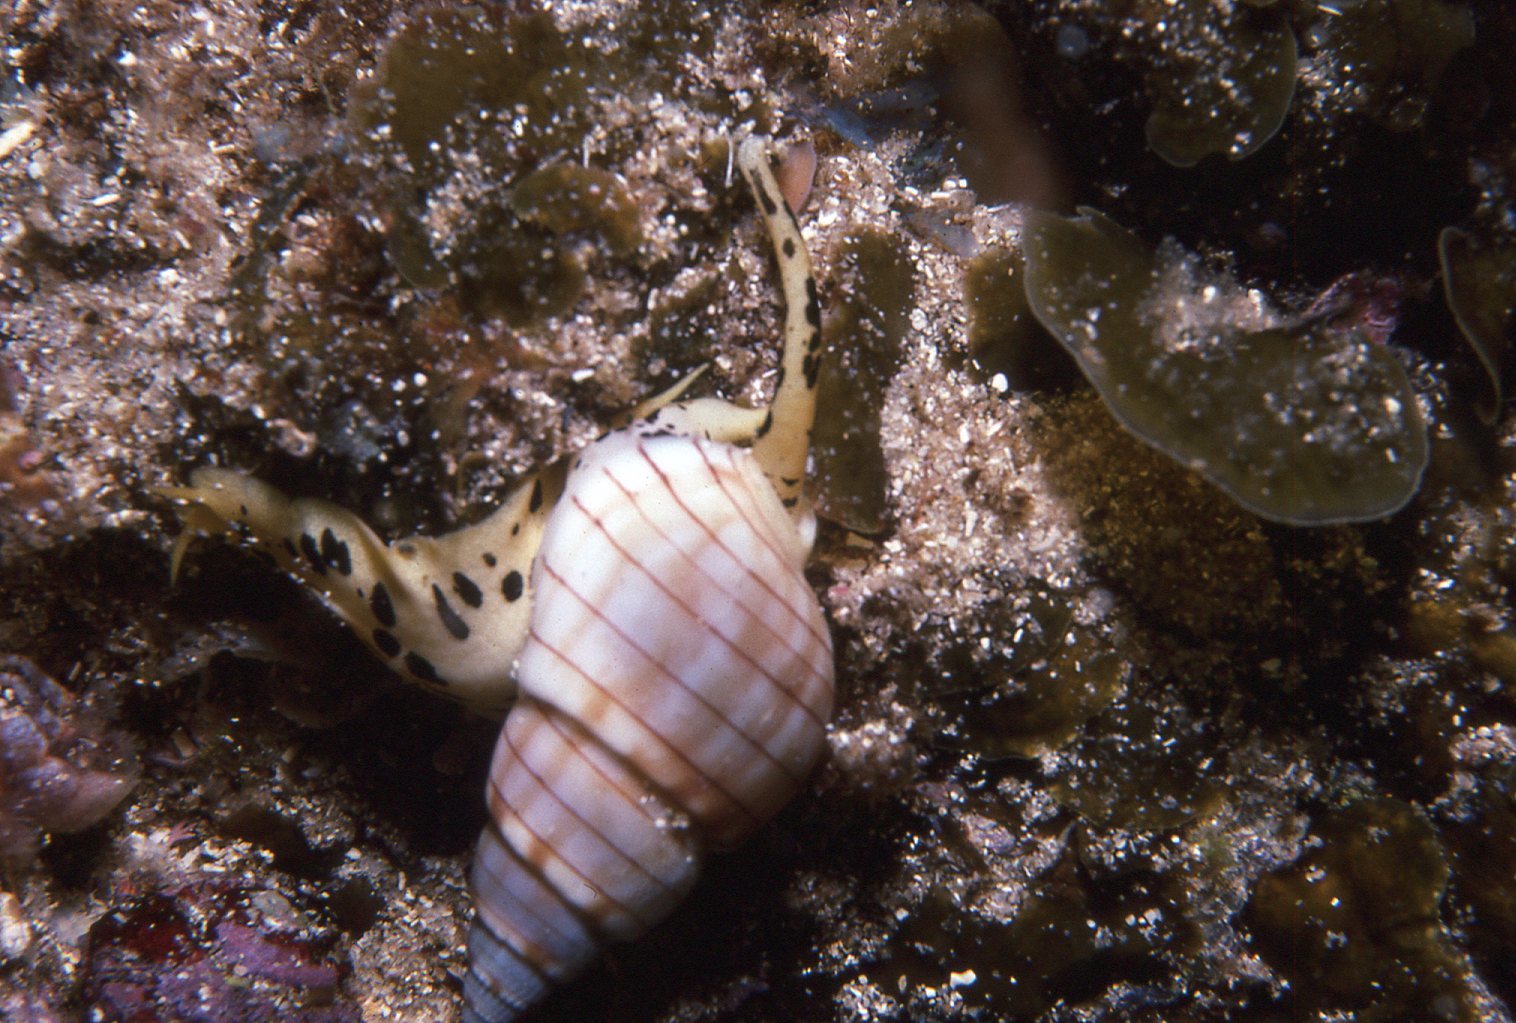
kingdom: Animalia
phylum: Mollusca
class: Gastropoda
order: Neogastropoda
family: Nassariidae
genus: Nassarius
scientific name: Nassarius particeps
